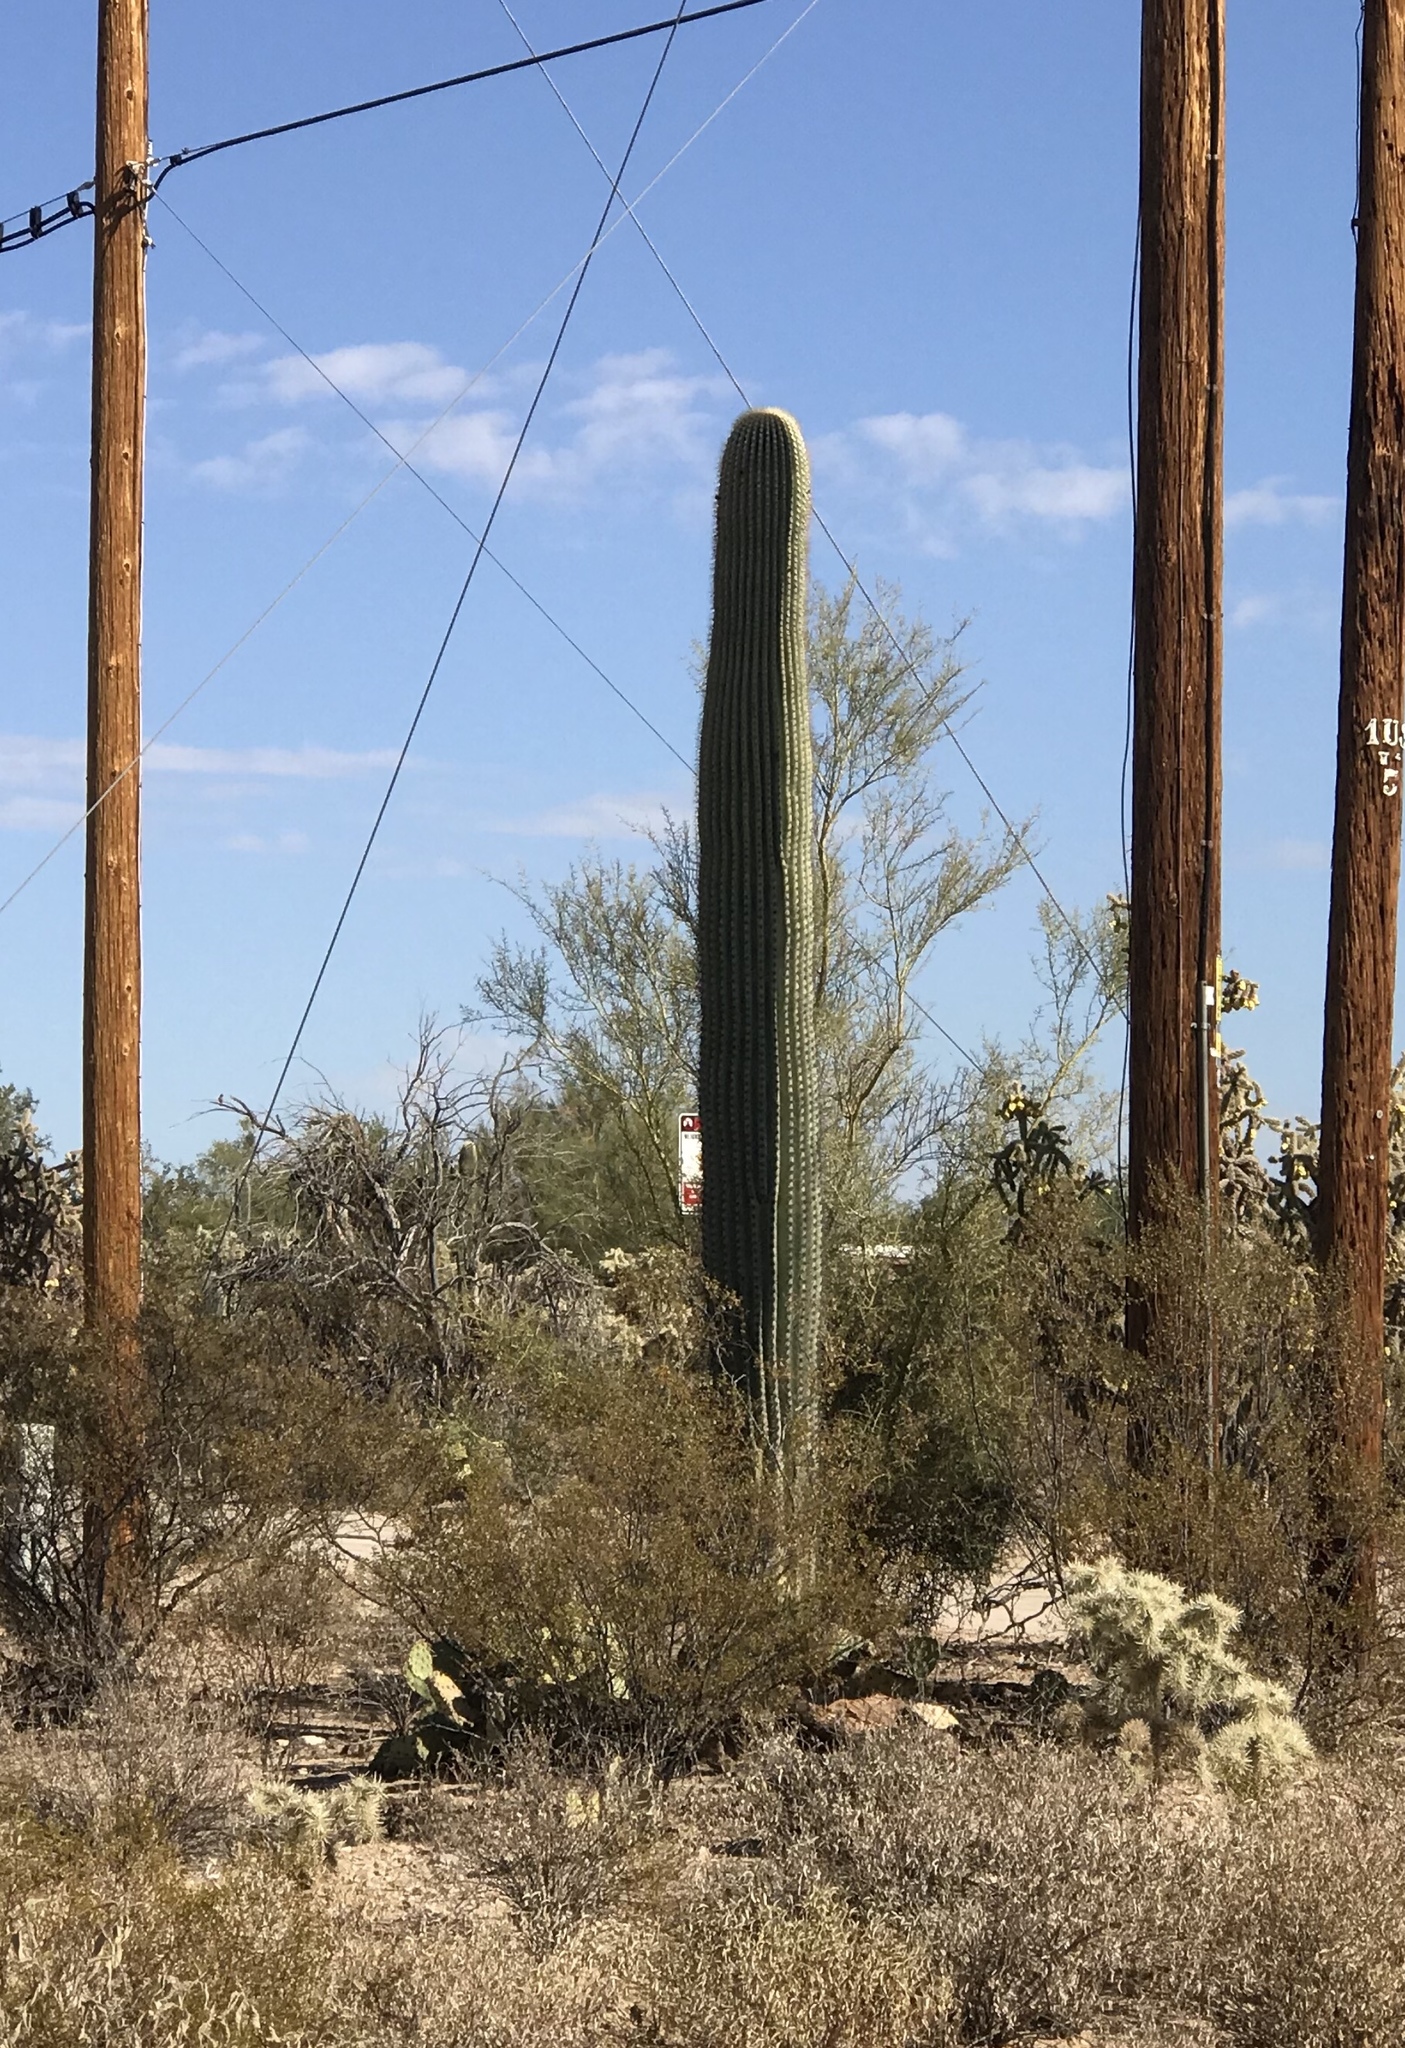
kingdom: Plantae
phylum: Tracheophyta
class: Magnoliopsida
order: Caryophyllales
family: Cactaceae
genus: Carnegiea
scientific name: Carnegiea gigantea
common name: Saguaro
